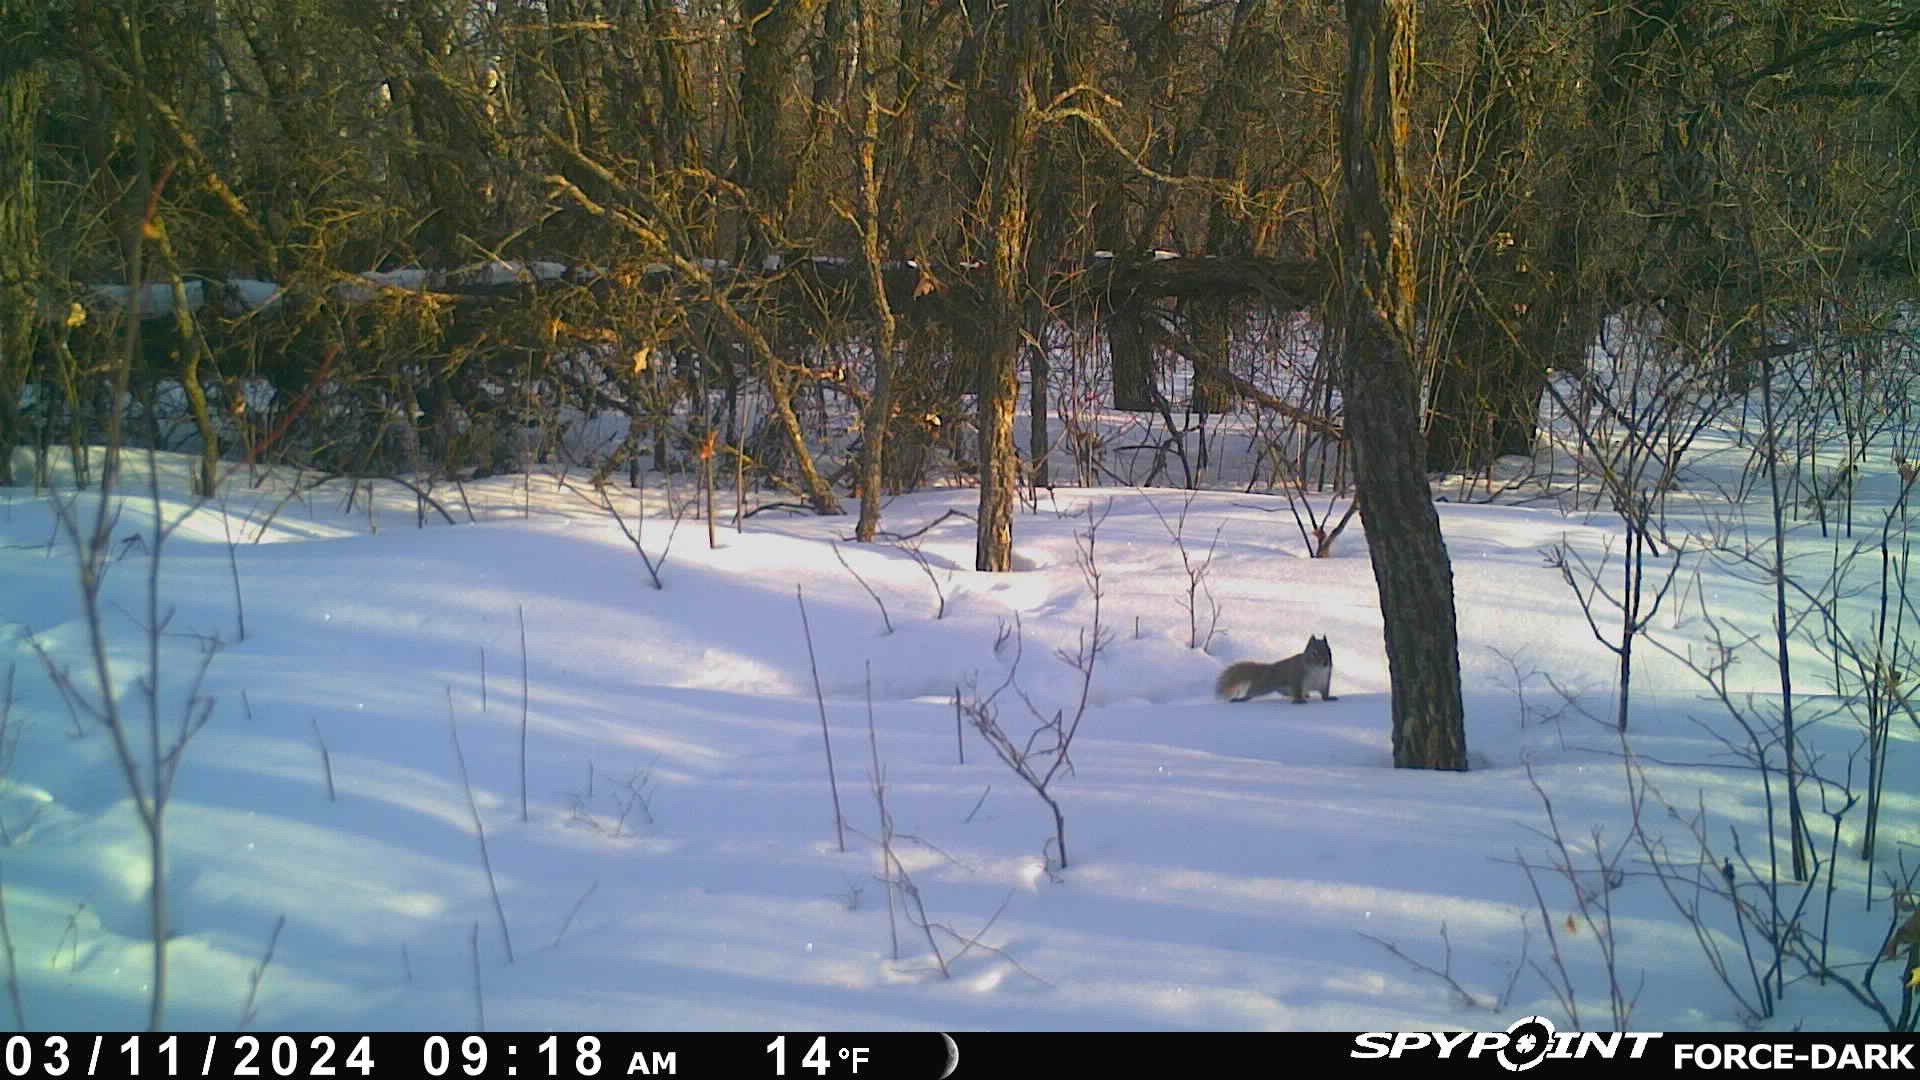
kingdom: Animalia
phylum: Chordata
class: Mammalia
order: Rodentia
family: Sciuridae
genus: Tamiasciurus
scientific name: Tamiasciurus hudsonicus
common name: Red squirrel
